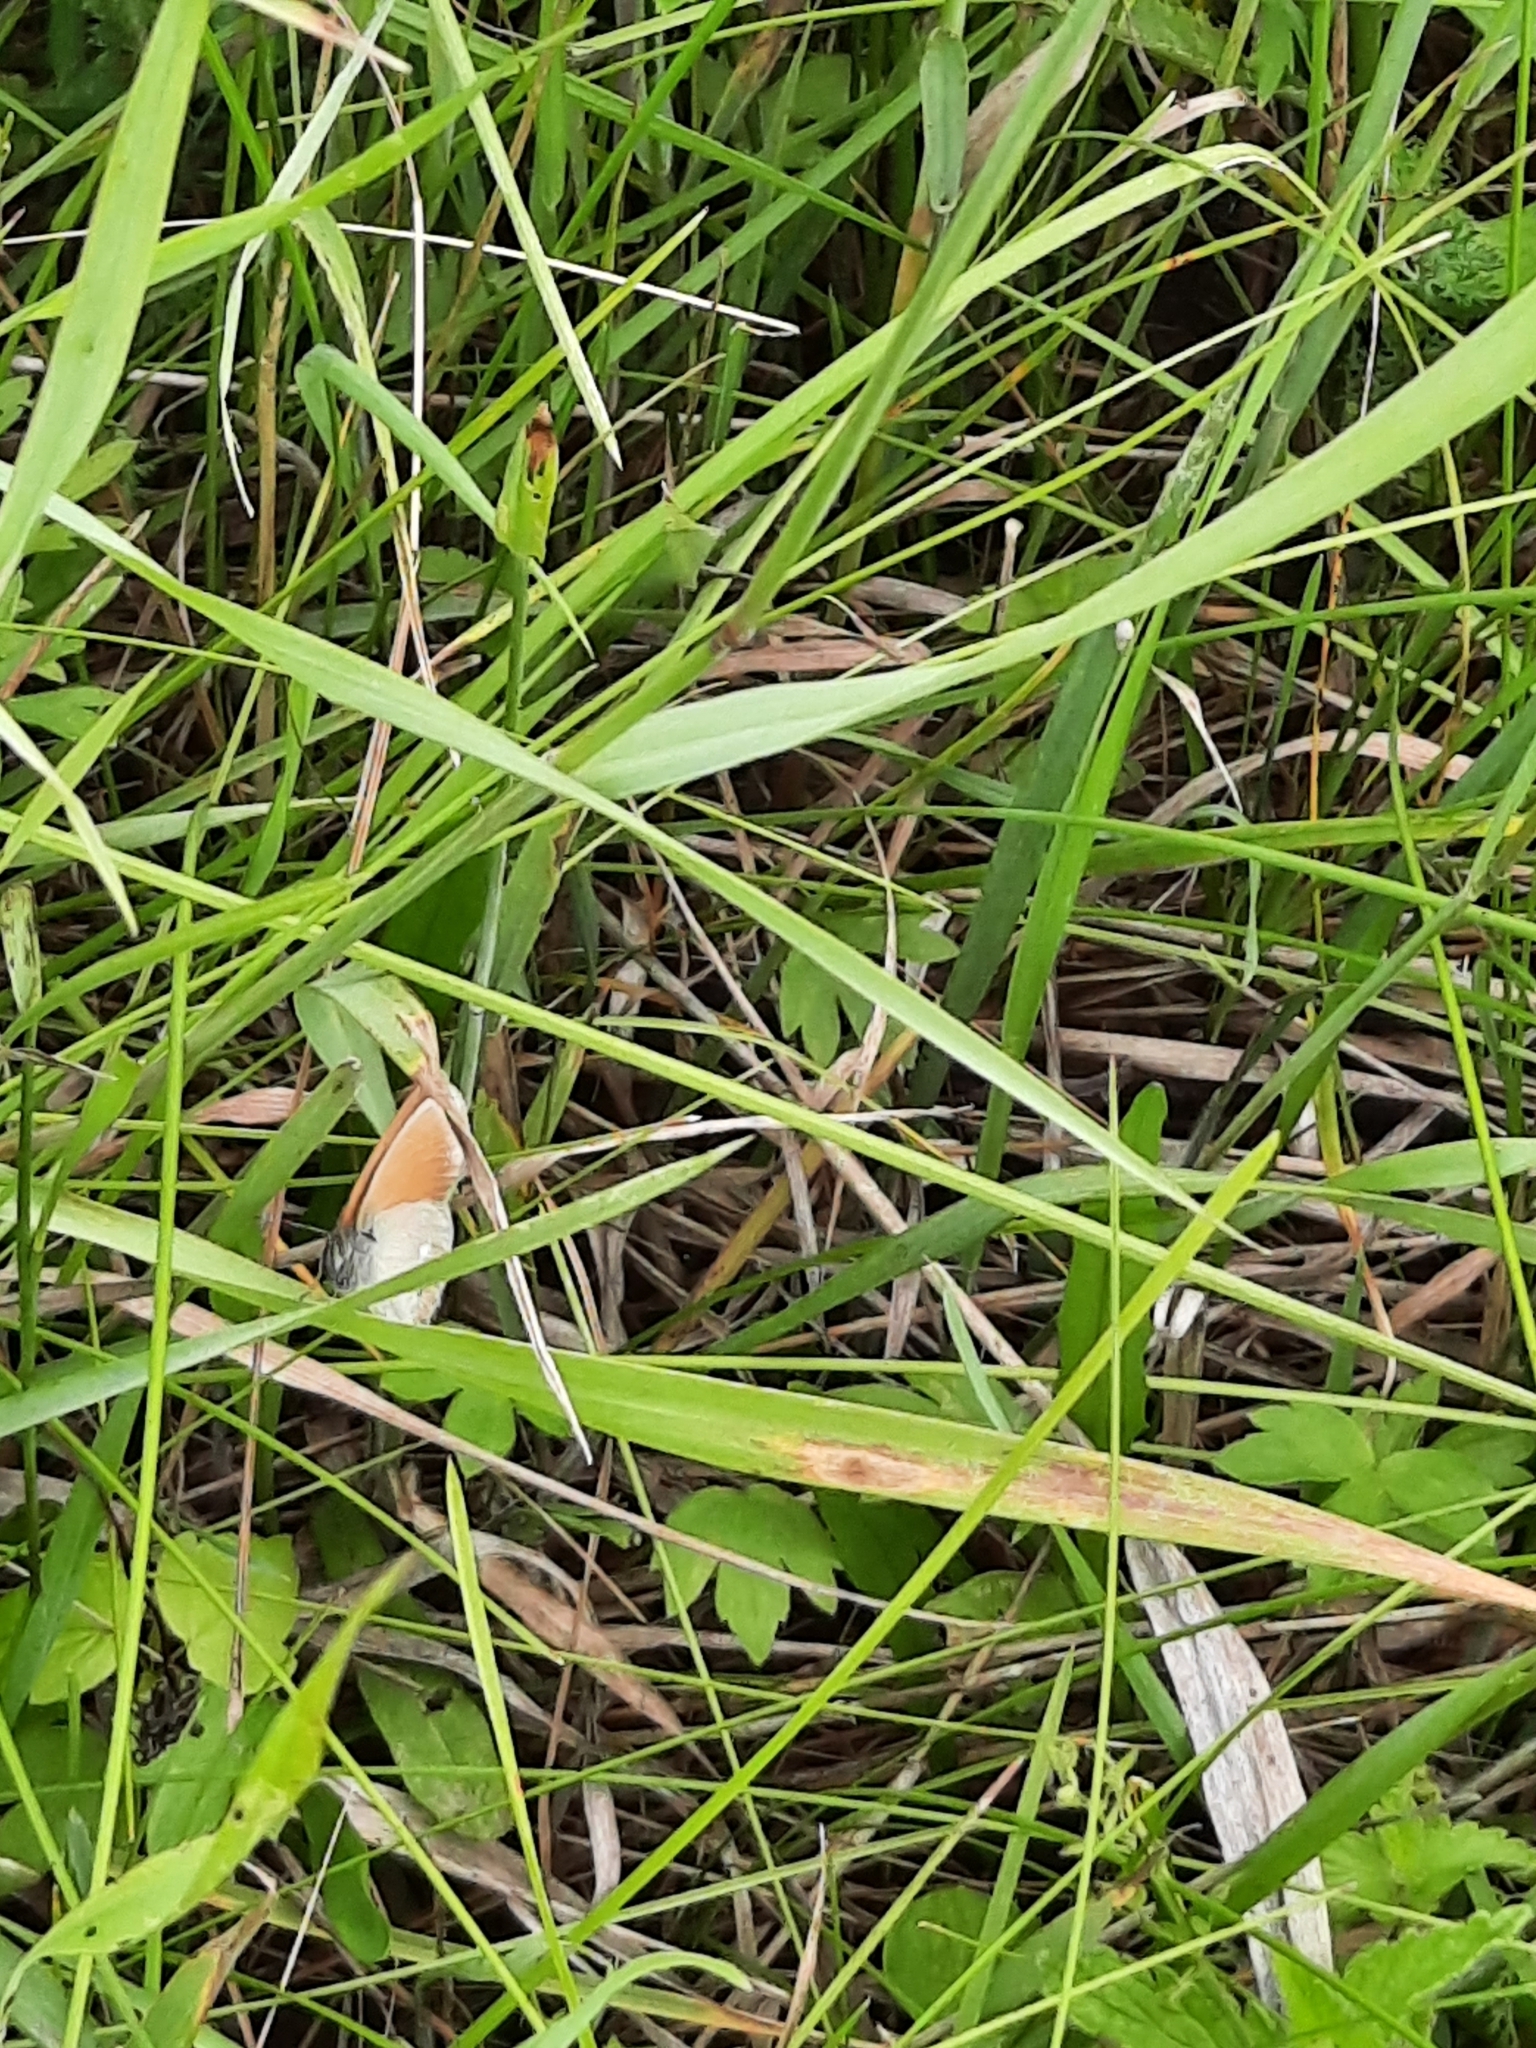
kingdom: Animalia
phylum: Arthropoda
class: Insecta
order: Lepidoptera
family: Nymphalidae
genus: Coenonympha
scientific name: Coenonympha iphis
